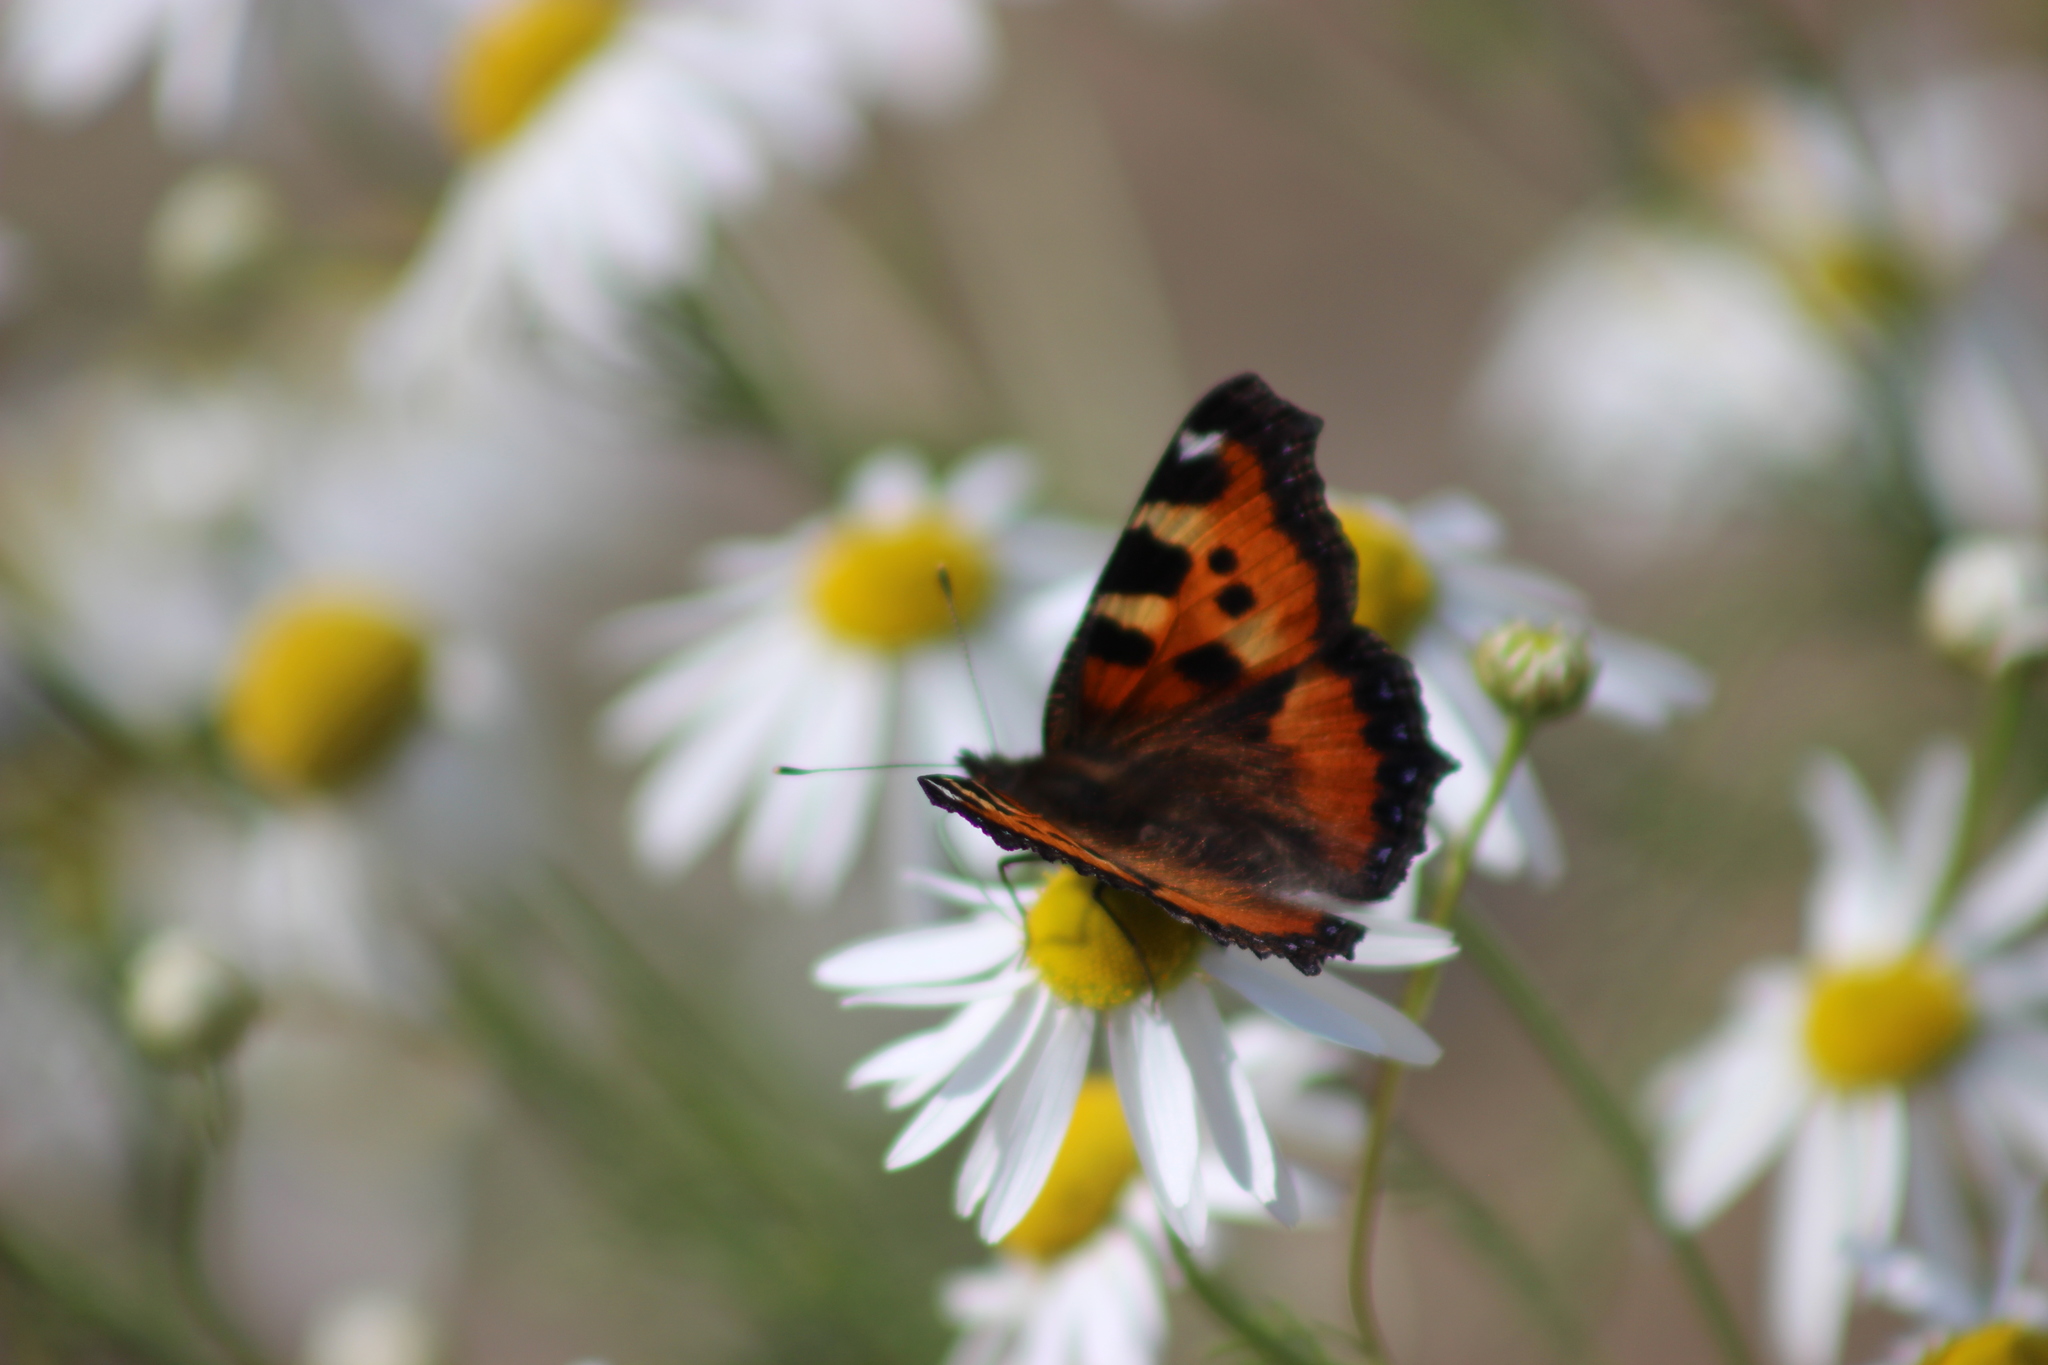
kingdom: Animalia
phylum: Arthropoda
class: Insecta
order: Lepidoptera
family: Nymphalidae
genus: Aglais
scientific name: Aglais urticae
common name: Small tortoiseshell
